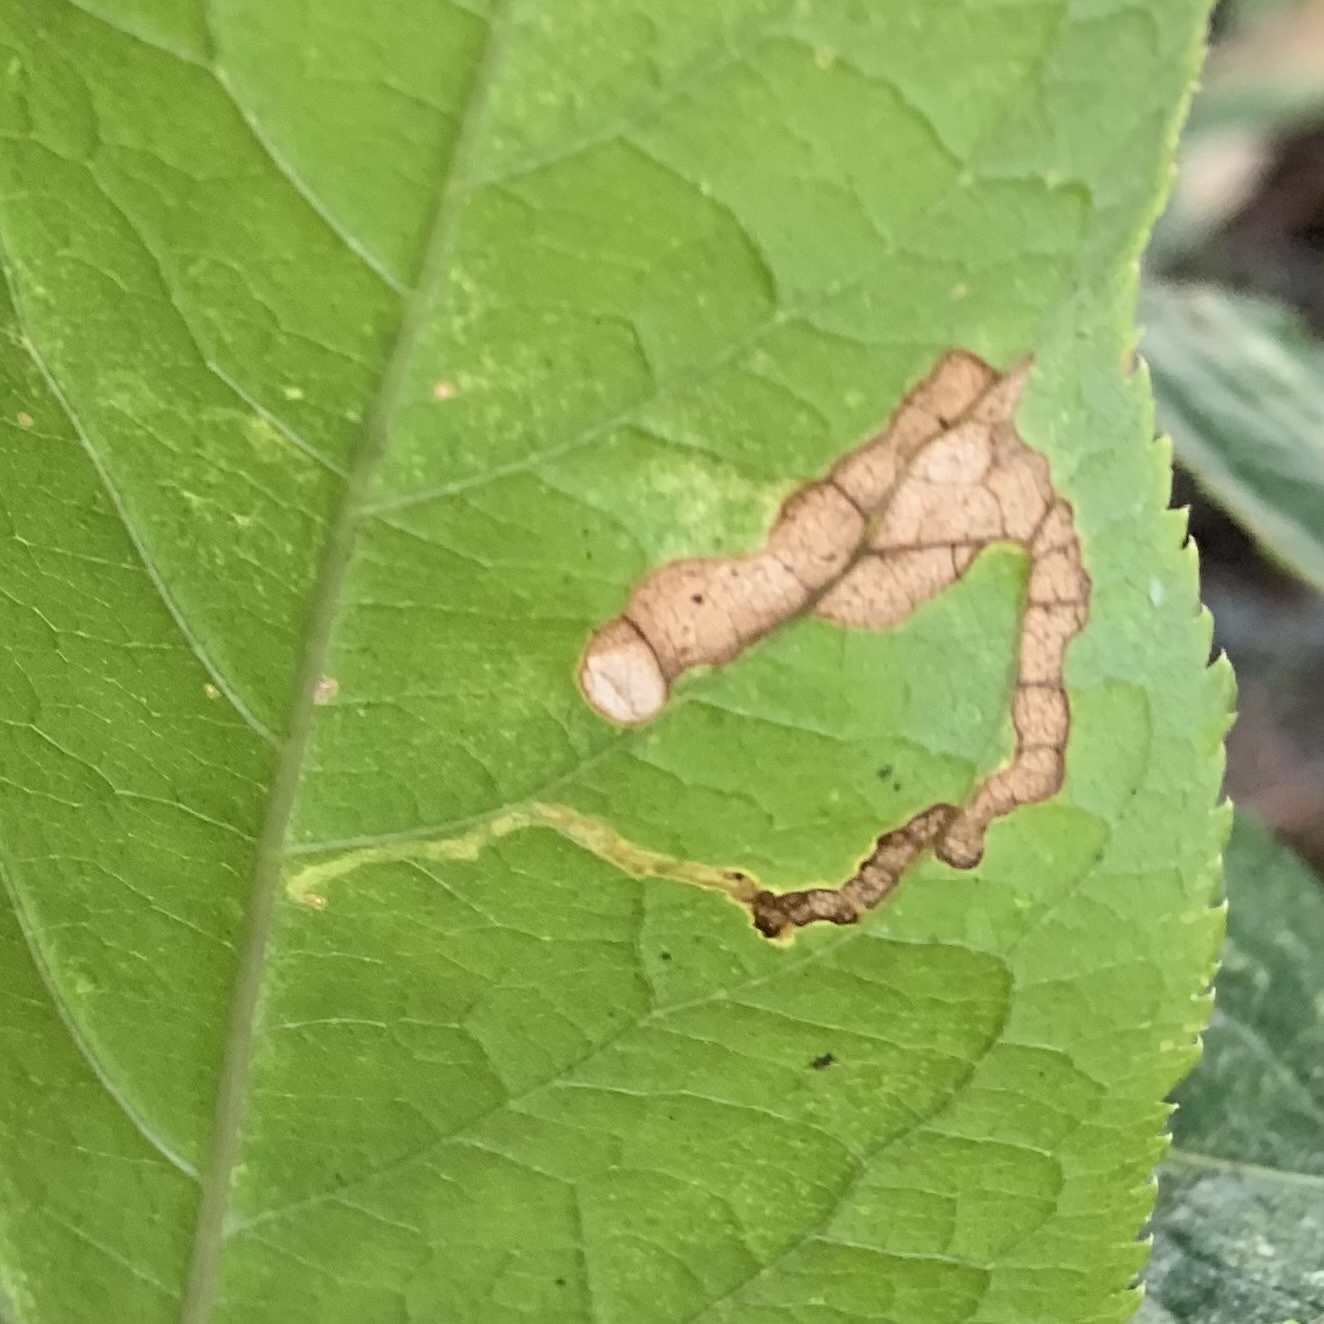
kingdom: Animalia
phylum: Arthropoda
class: Insecta
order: Diptera
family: Agromyzidae
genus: Phytomyza
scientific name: Phytomyza aralivora
